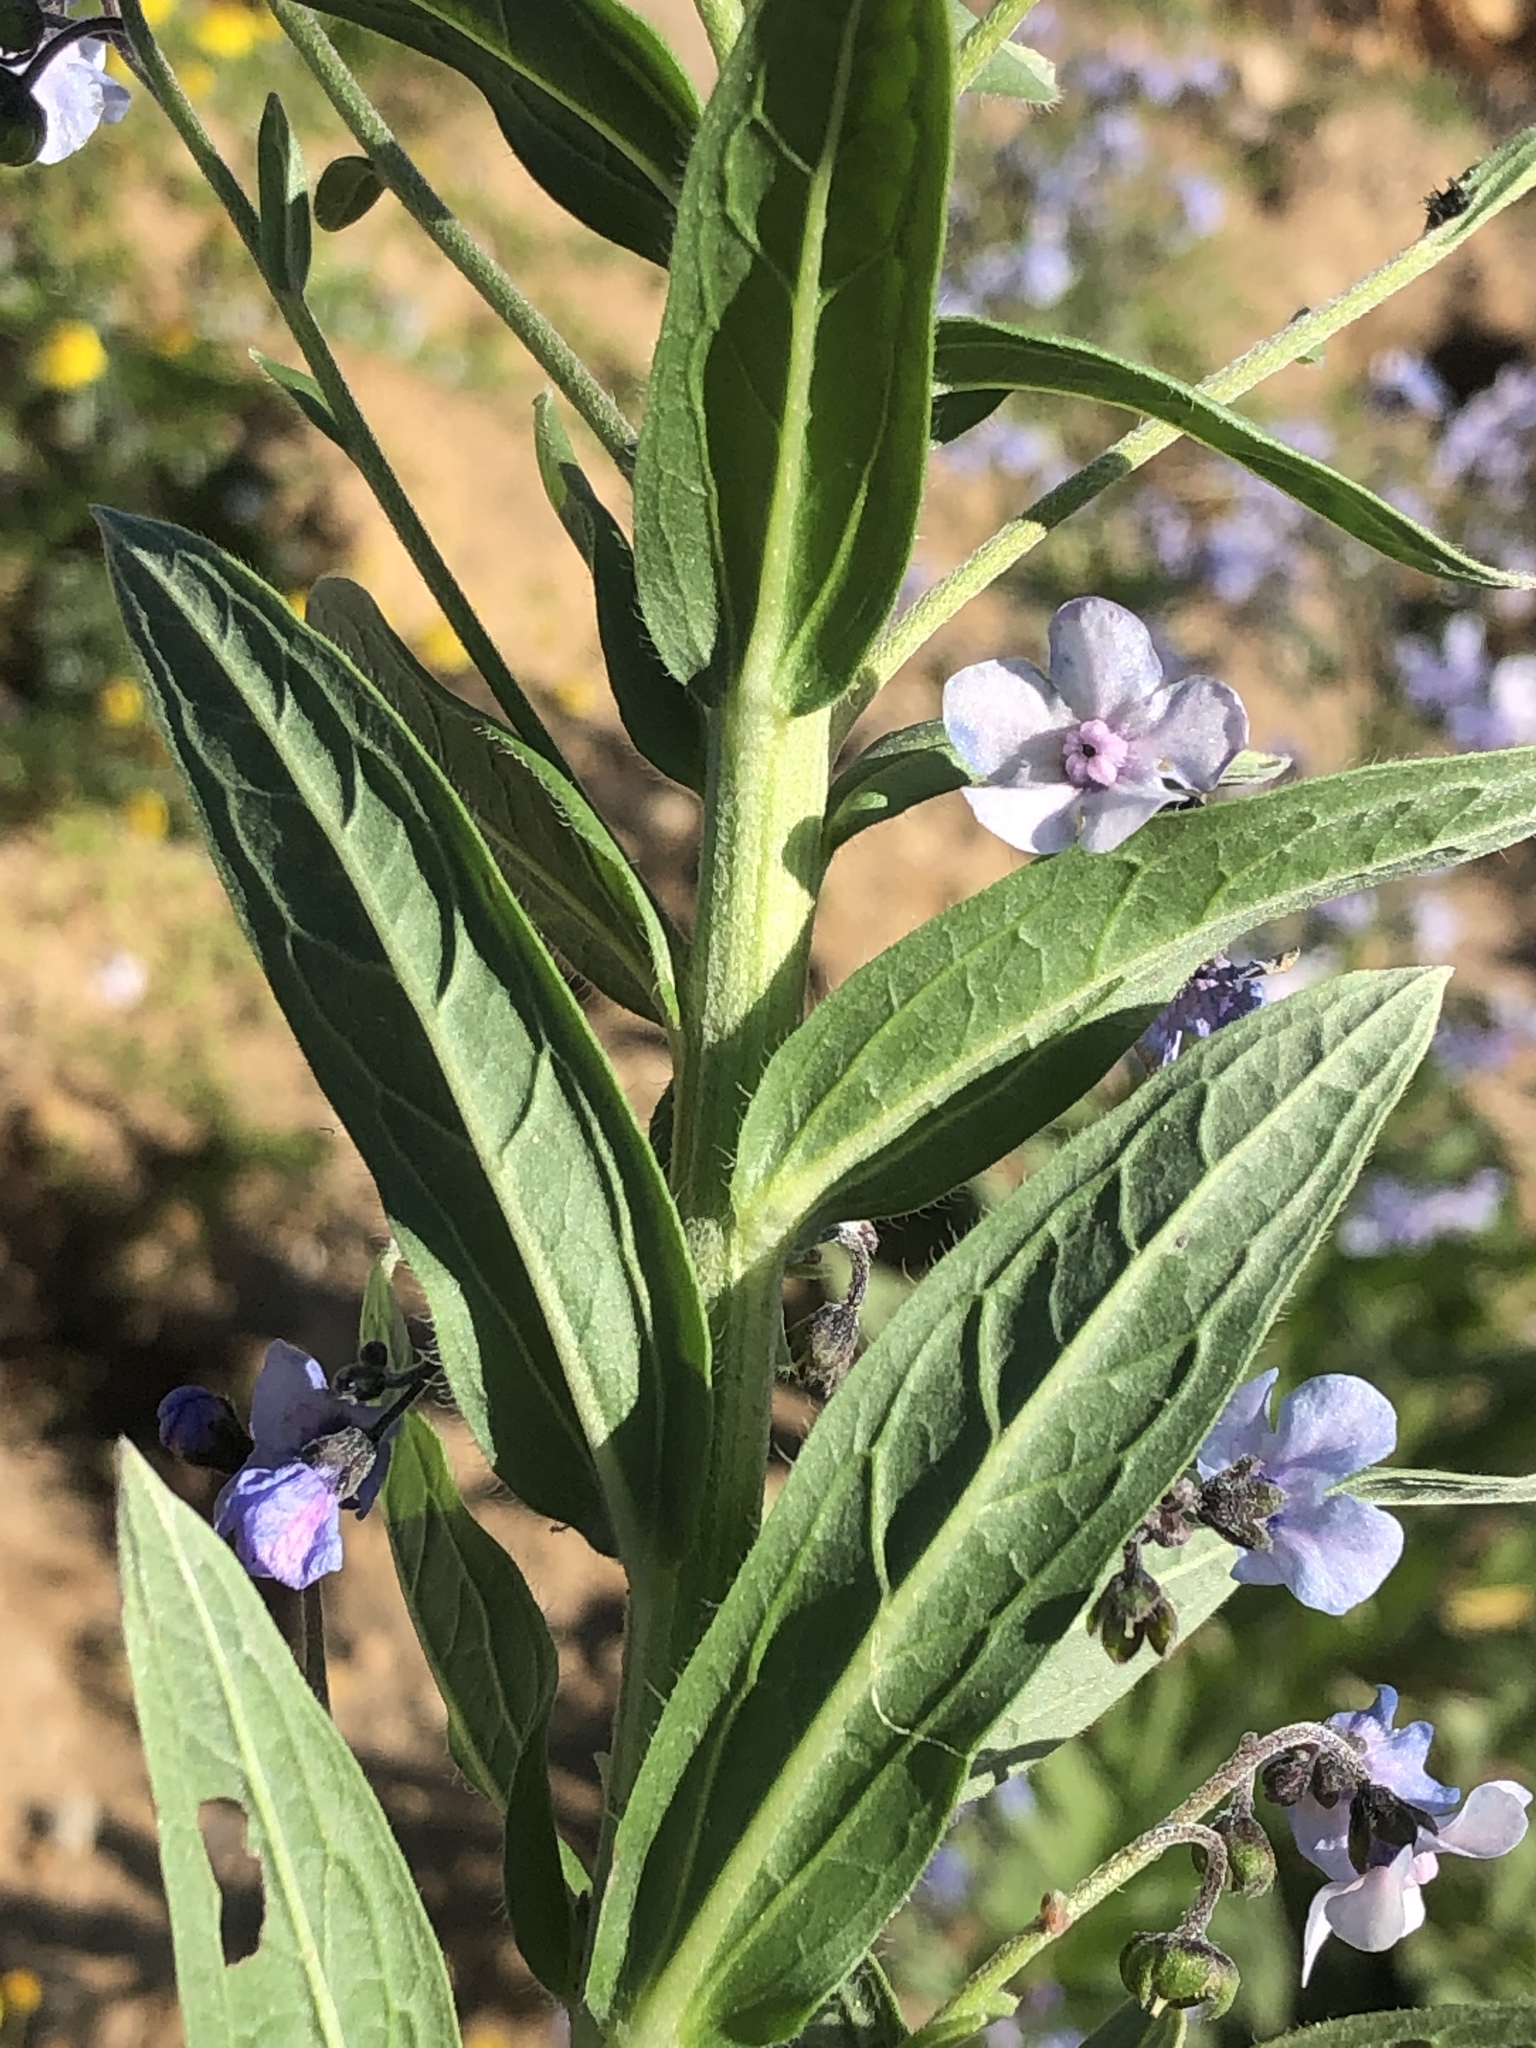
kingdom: Plantae
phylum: Tracheophyta
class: Magnoliopsida
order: Boraginales
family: Boraginaceae
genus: Anchusa
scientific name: Anchusa capensis
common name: Cape bugloss
